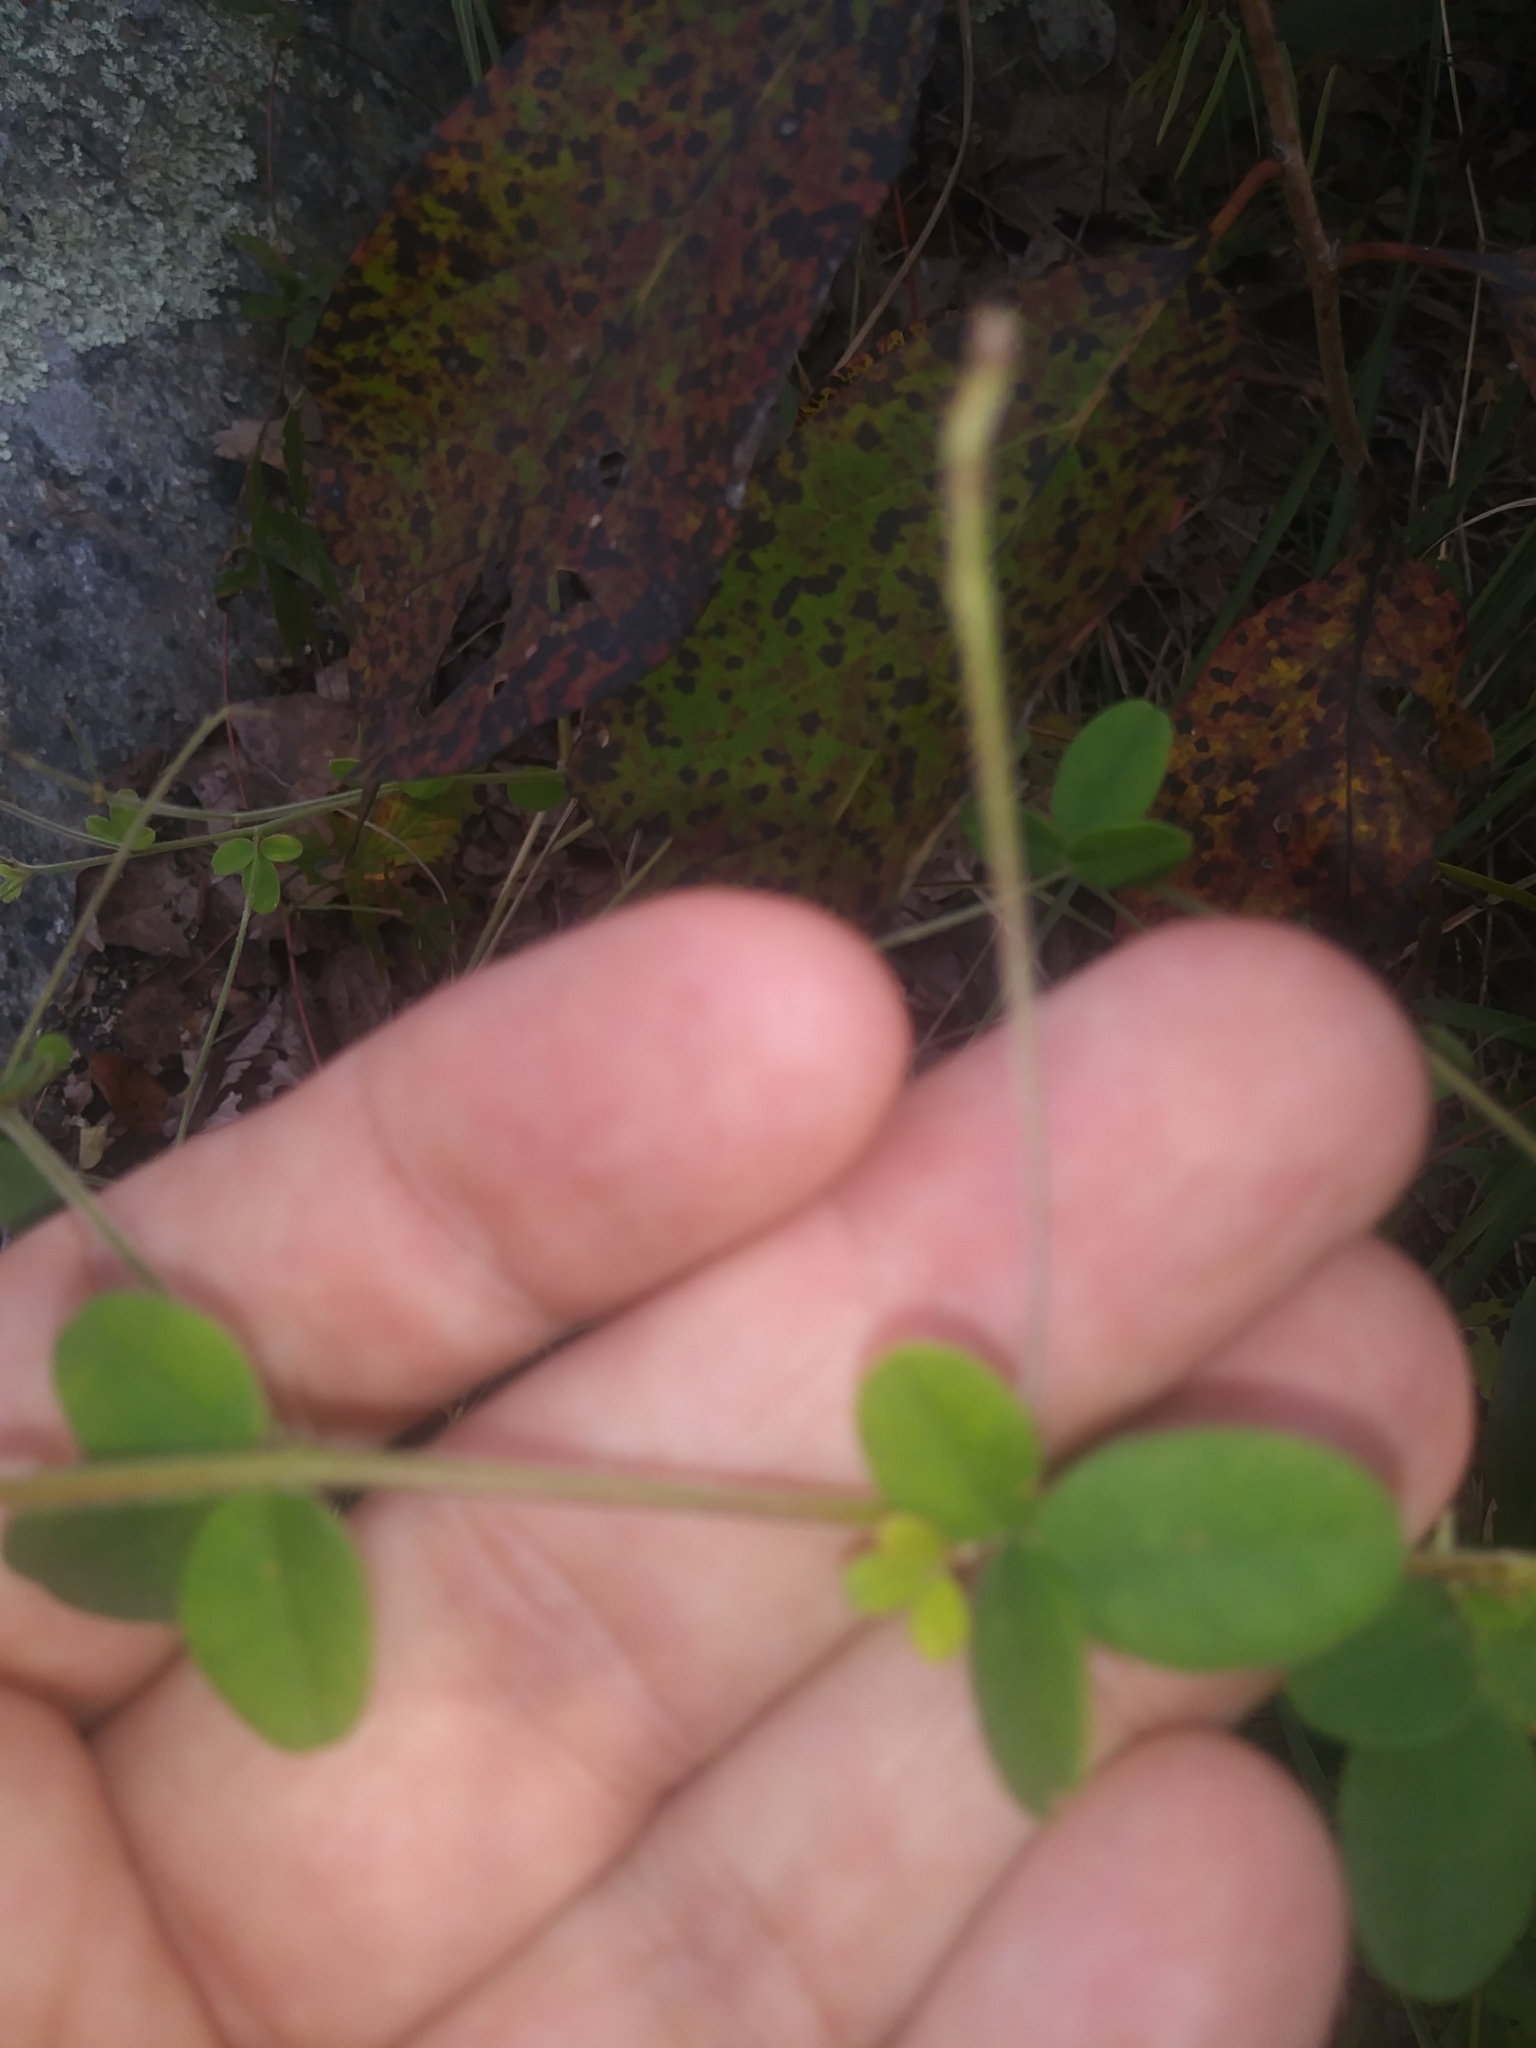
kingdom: Plantae
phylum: Tracheophyta
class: Magnoliopsida
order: Fabales
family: Fabaceae
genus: Lespedeza
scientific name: Lespedeza procumbens
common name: Downy trailing bush-clover
